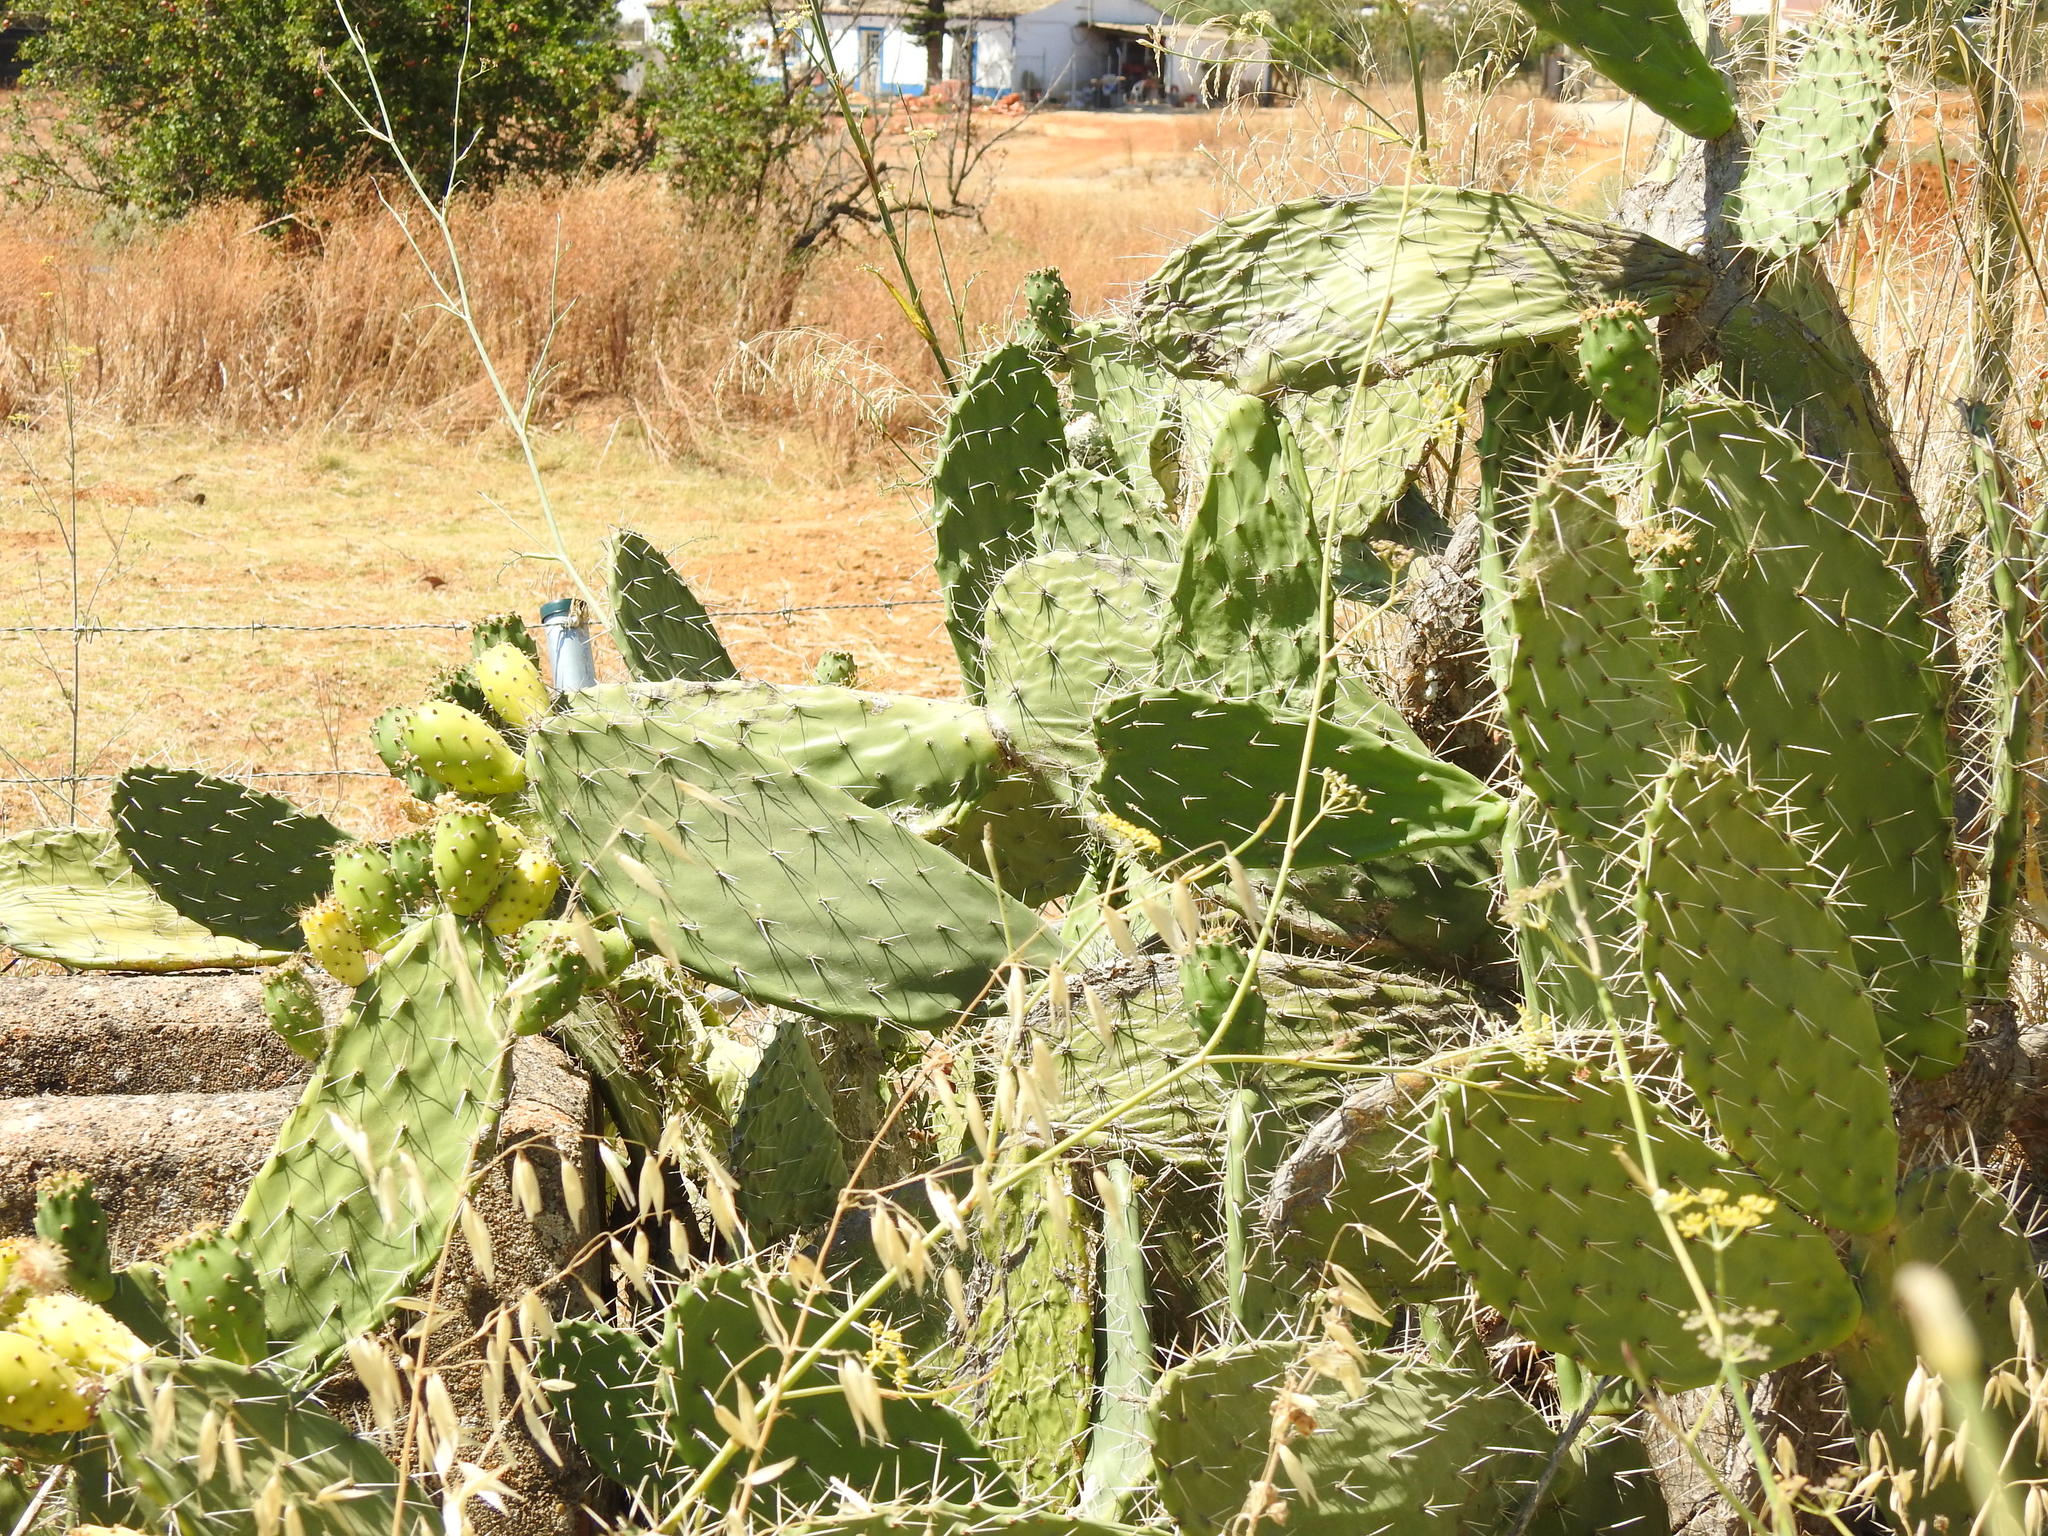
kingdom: Plantae
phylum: Tracheophyta
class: Magnoliopsida
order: Caryophyllales
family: Cactaceae
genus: Opuntia
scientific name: Opuntia ficus-indica
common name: Barbary fig
